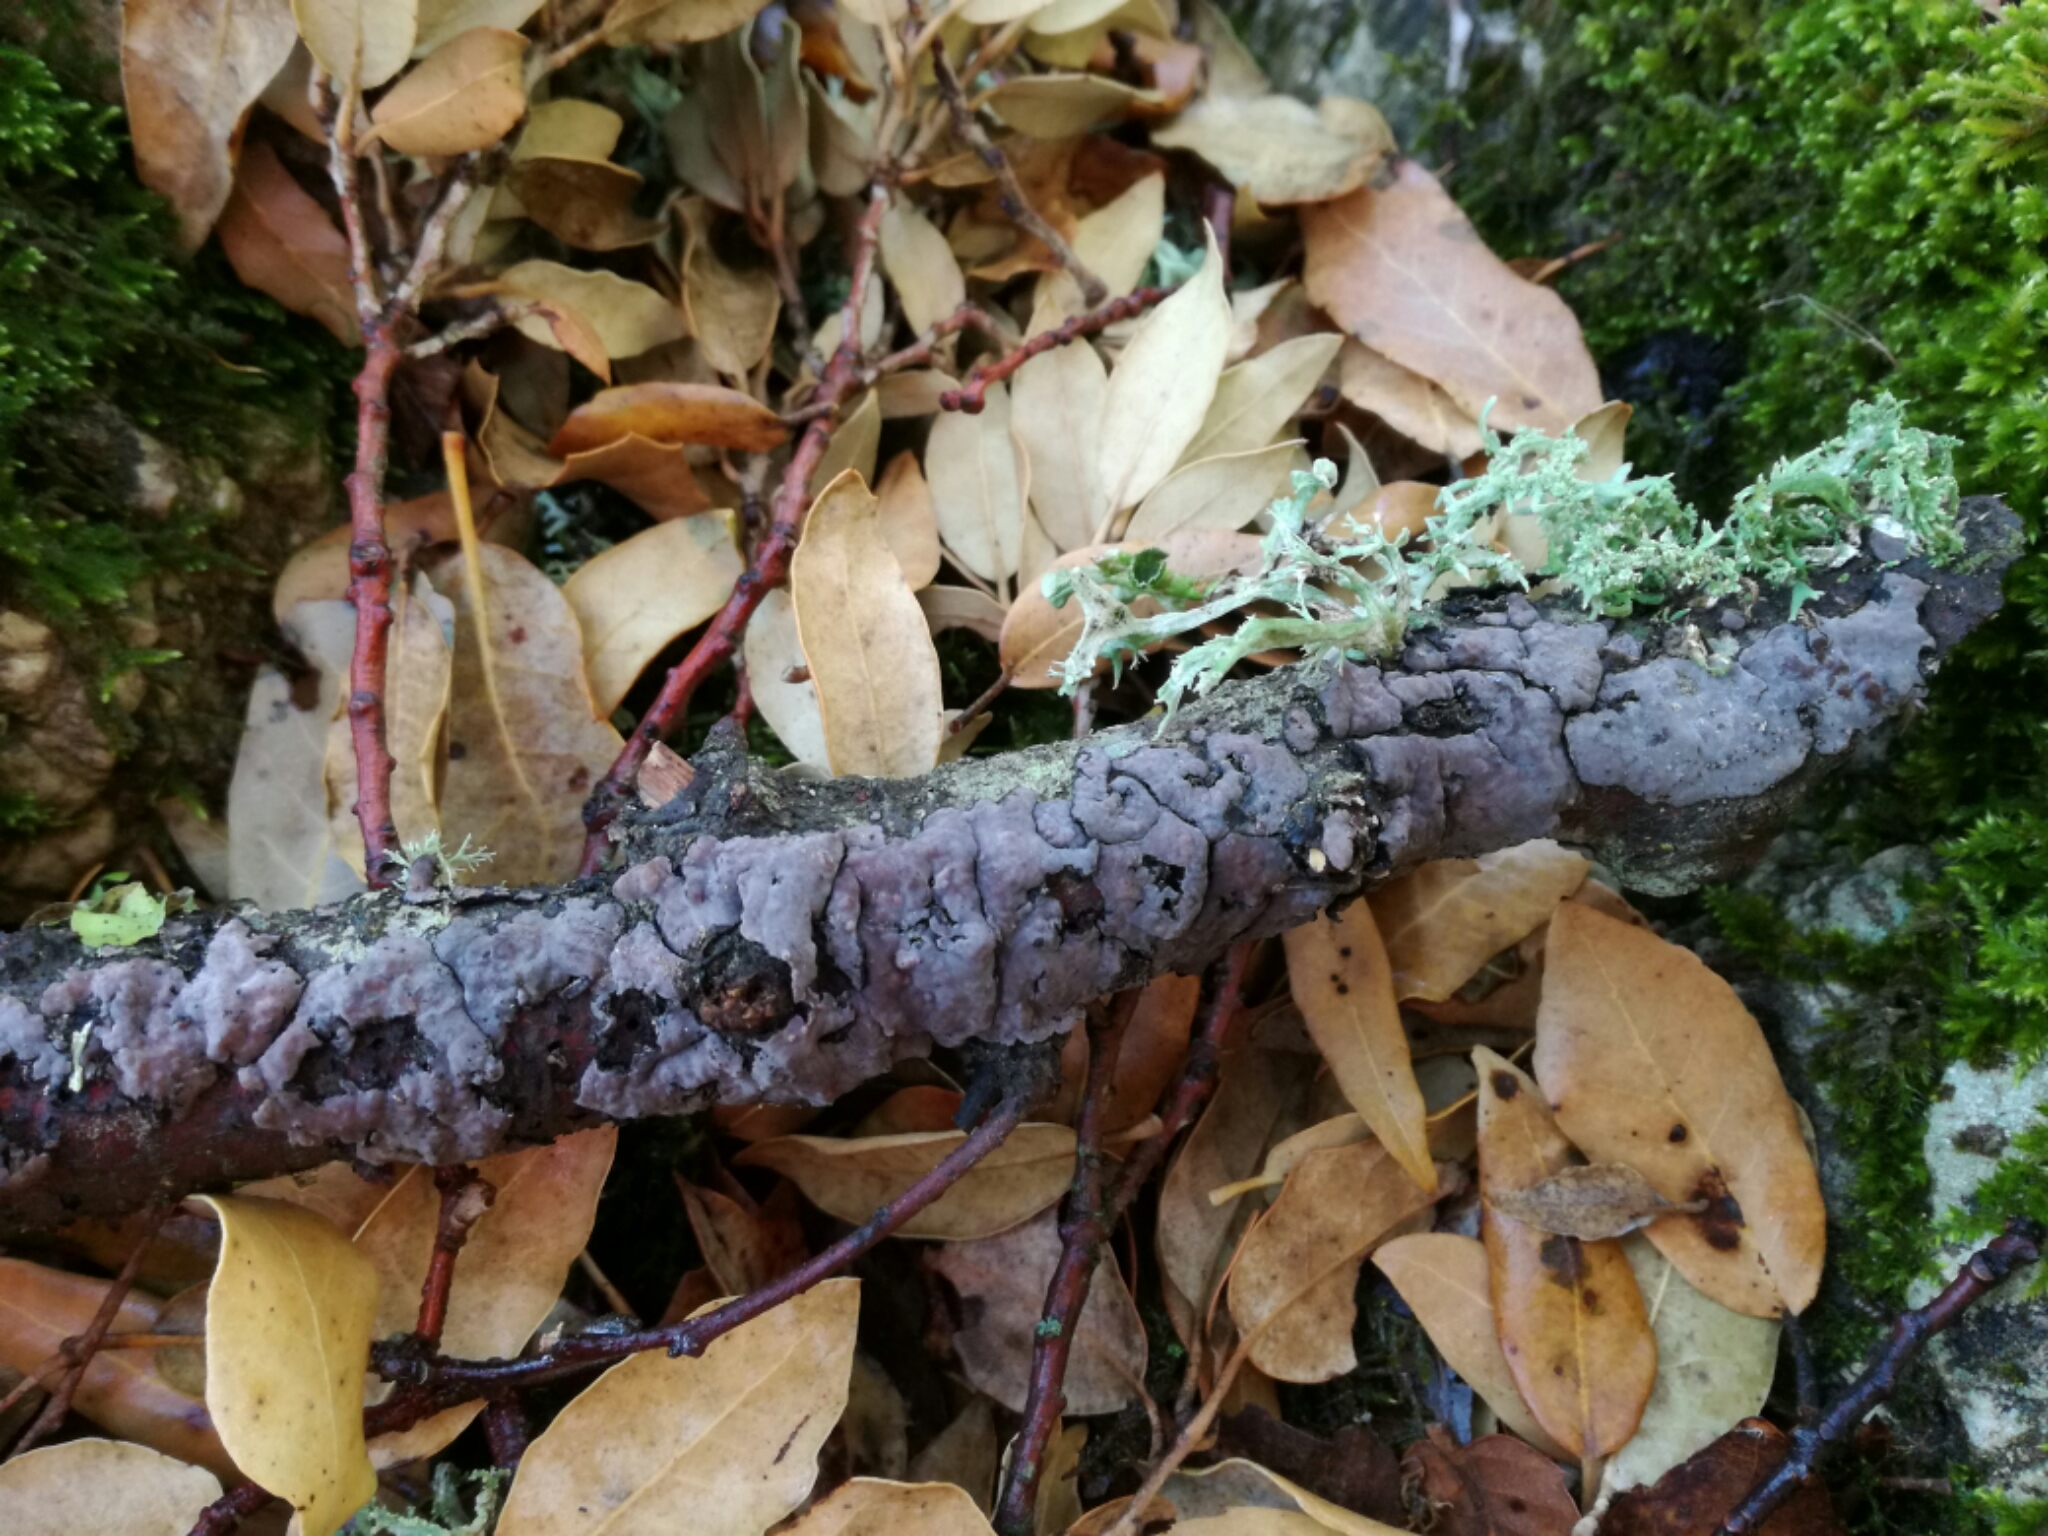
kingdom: Fungi
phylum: Basidiomycota
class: Agaricomycetes
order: Russulales
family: Peniophoraceae
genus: Peniophora
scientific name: Peniophora quercina
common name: Oak crust
